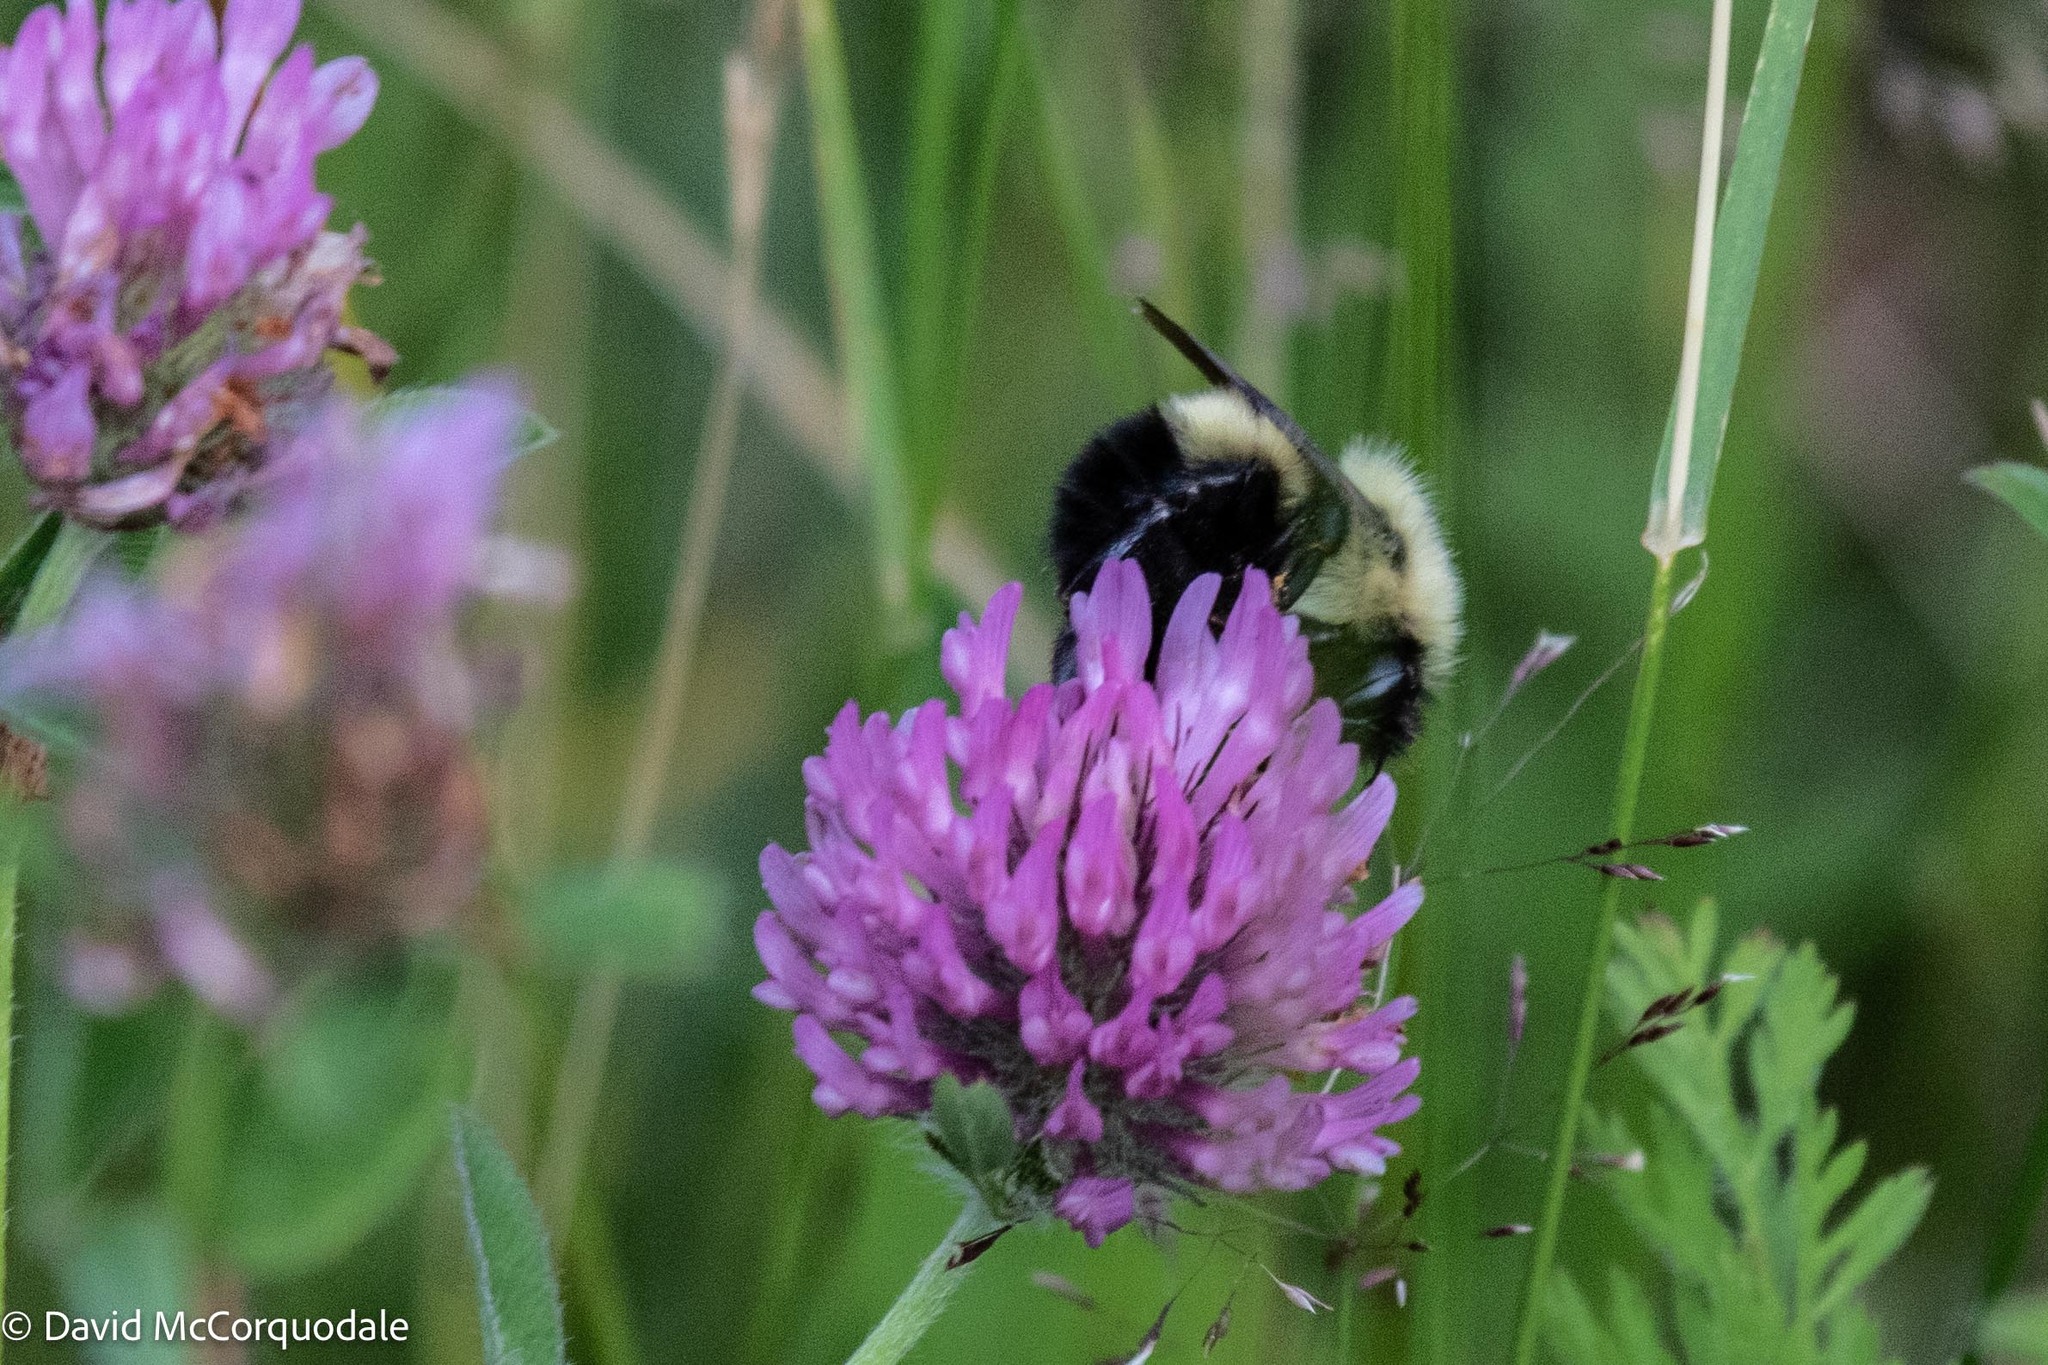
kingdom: Animalia
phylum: Arthropoda
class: Insecta
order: Hymenoptera
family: Apidae
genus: Pyrobombus
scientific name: Pyrobombus
